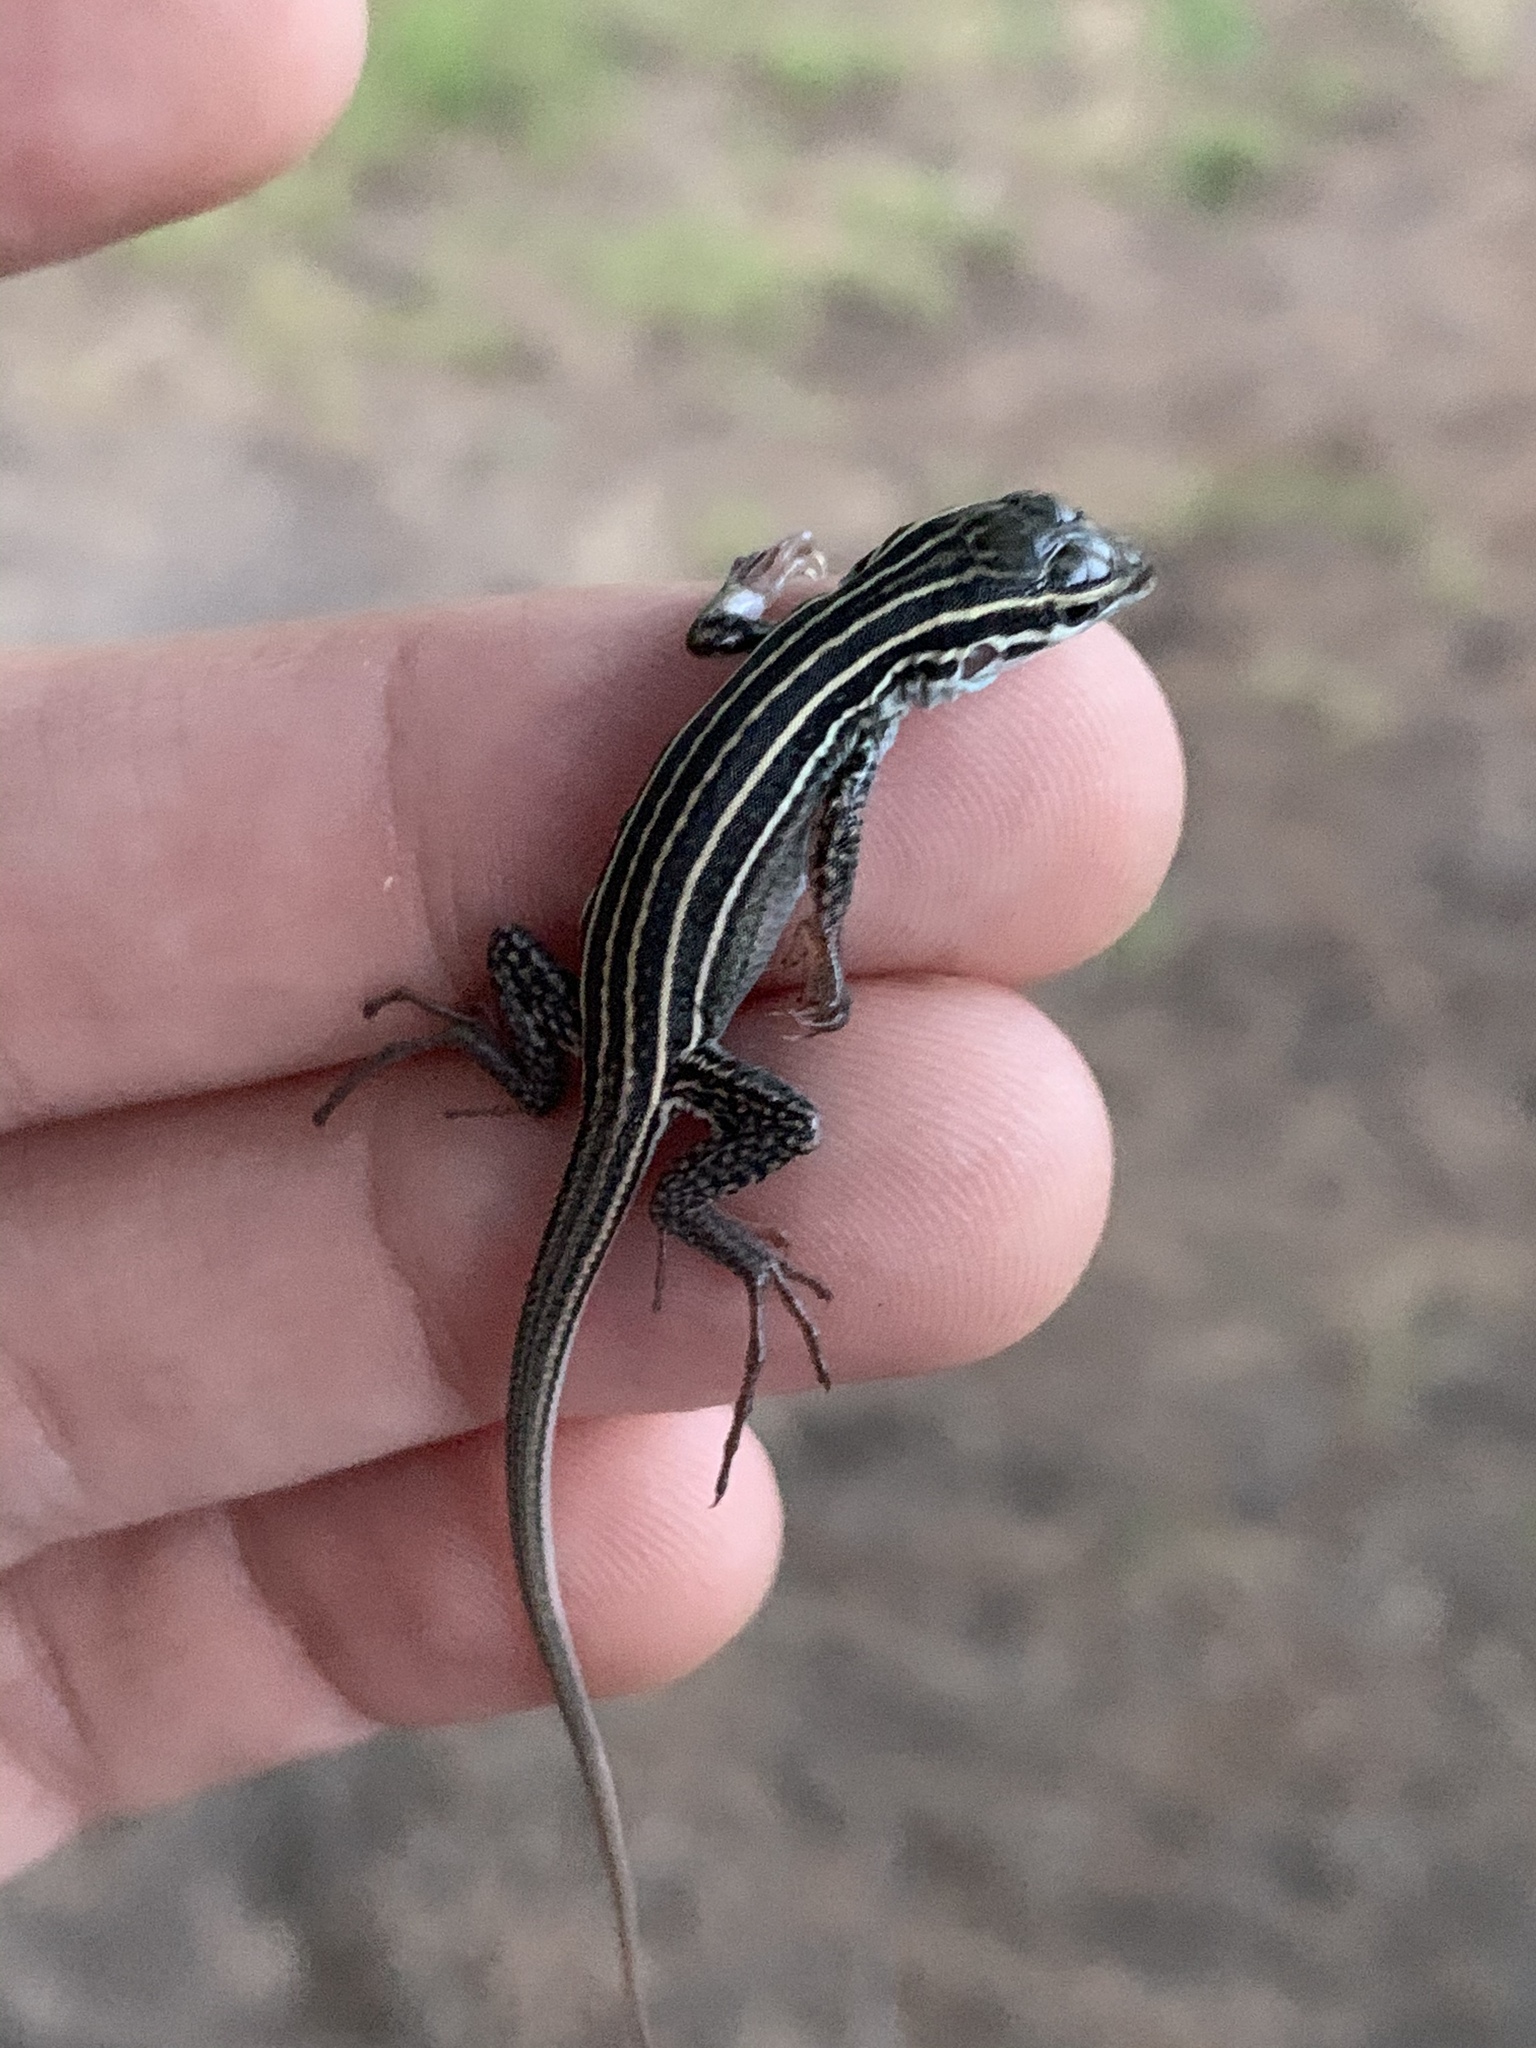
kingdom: Animalia
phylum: Chordata
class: Squamata
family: Teiidae
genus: Aspidoscelis
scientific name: Aspidoscelis exsanguis
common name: Chihuahuan spotted whiptail
